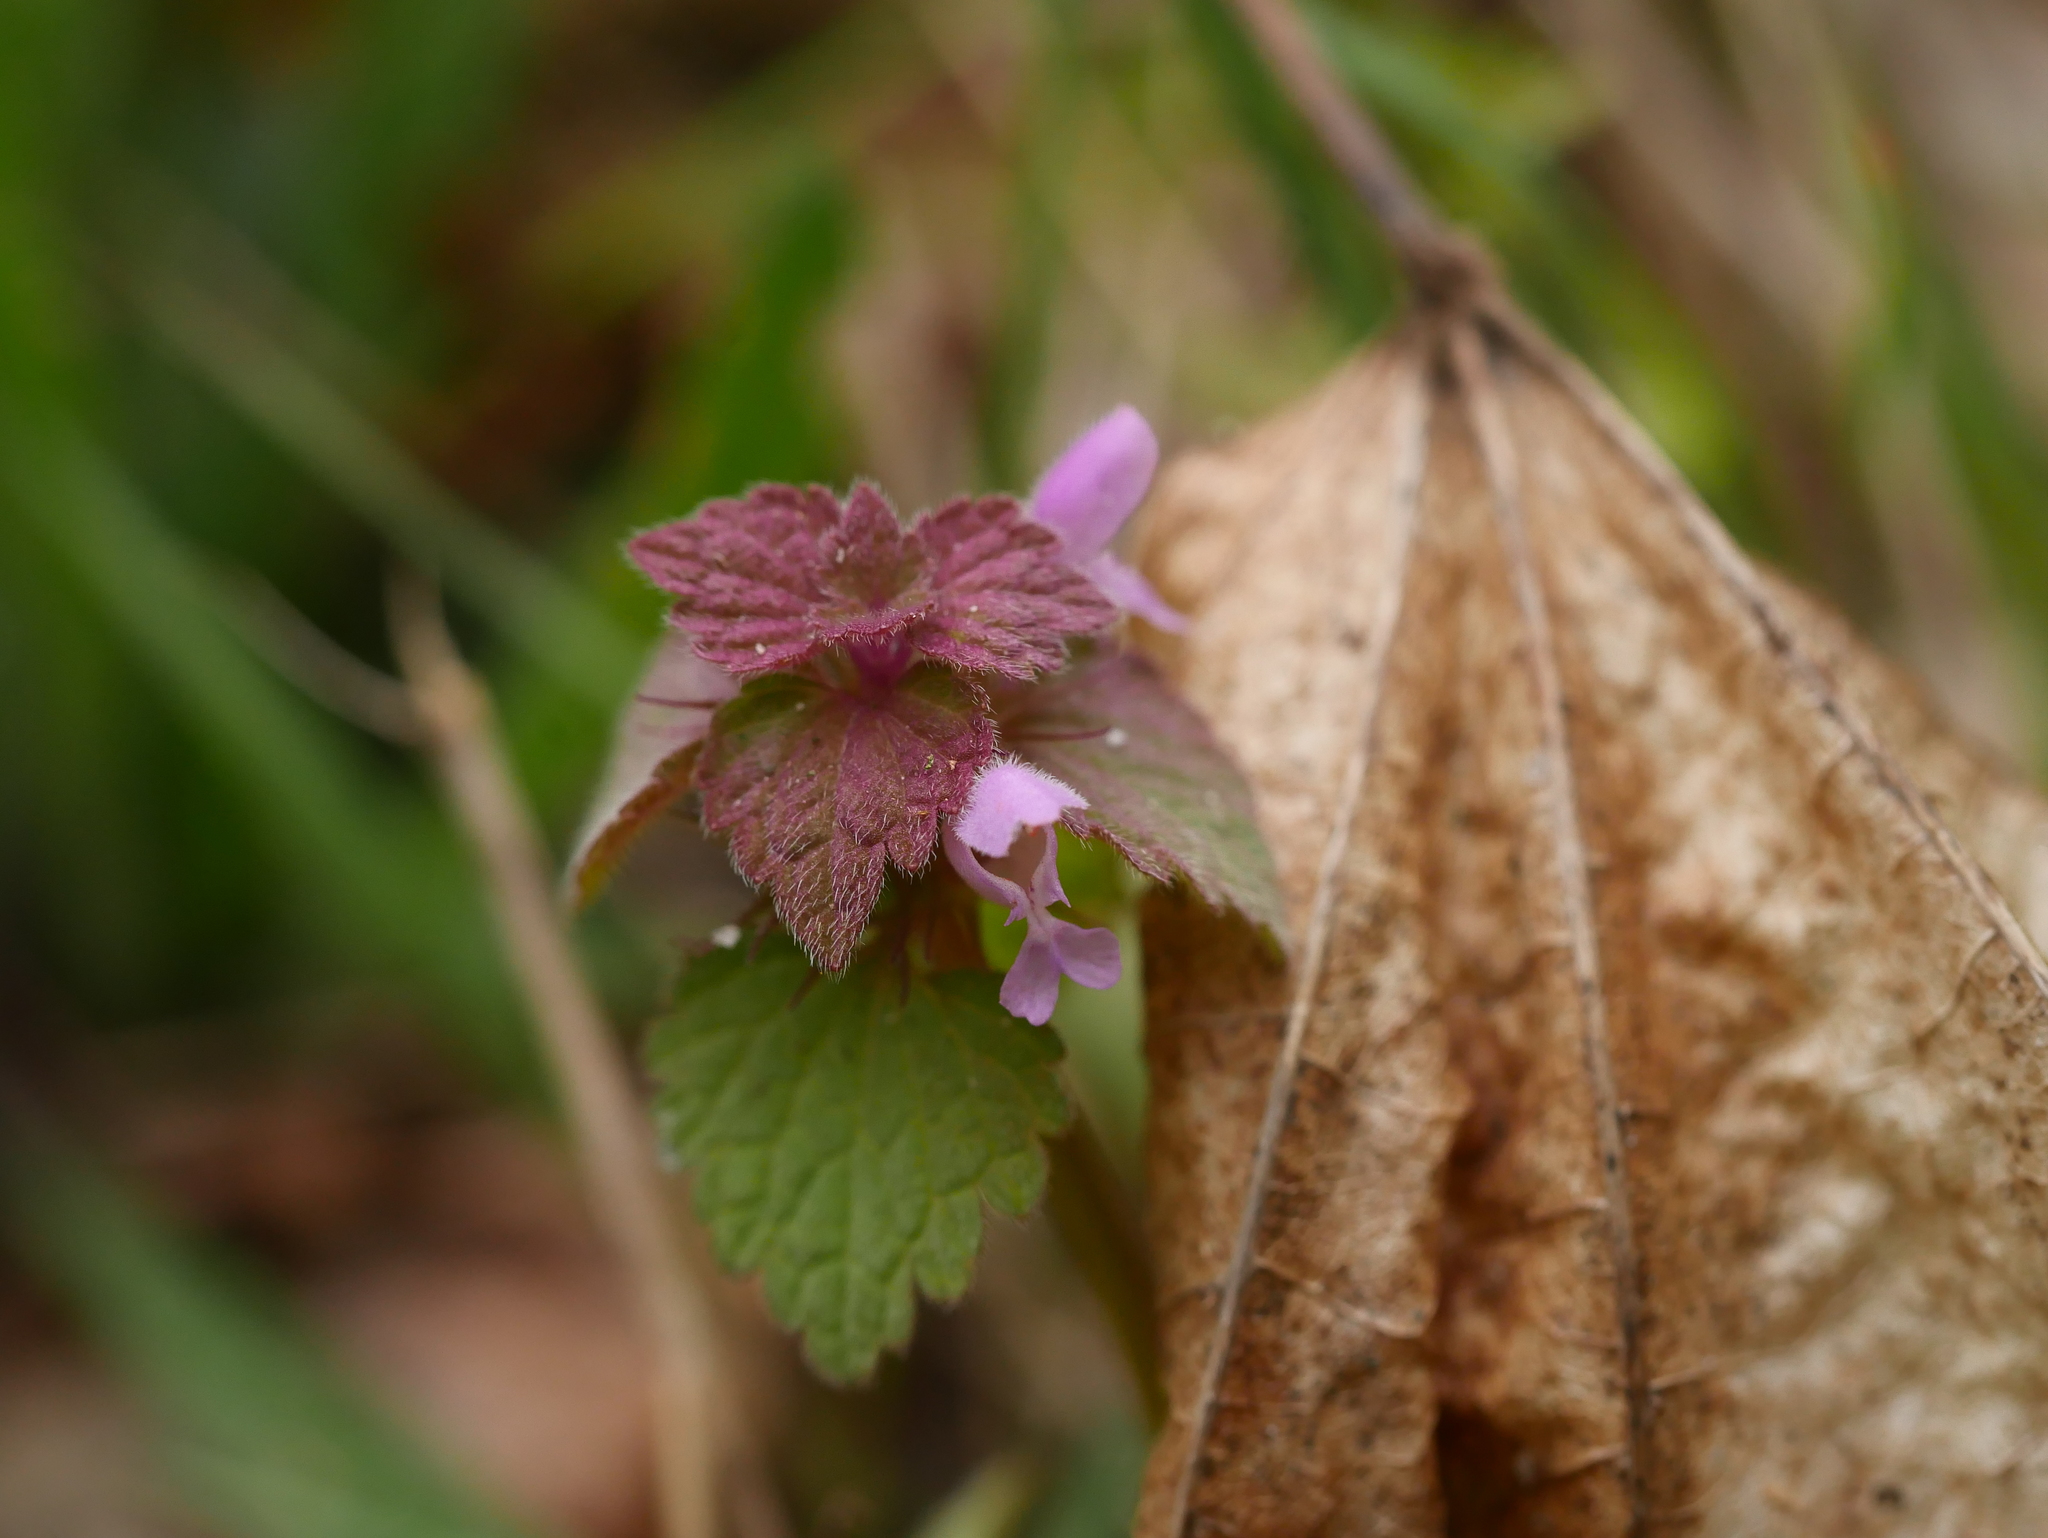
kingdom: Plantae
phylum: Tracheophyta
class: Magnoliopsida
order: Lamiales
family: Lamiaceae
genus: Lamium
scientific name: Lamium purpureum
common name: Red dead-nettle
